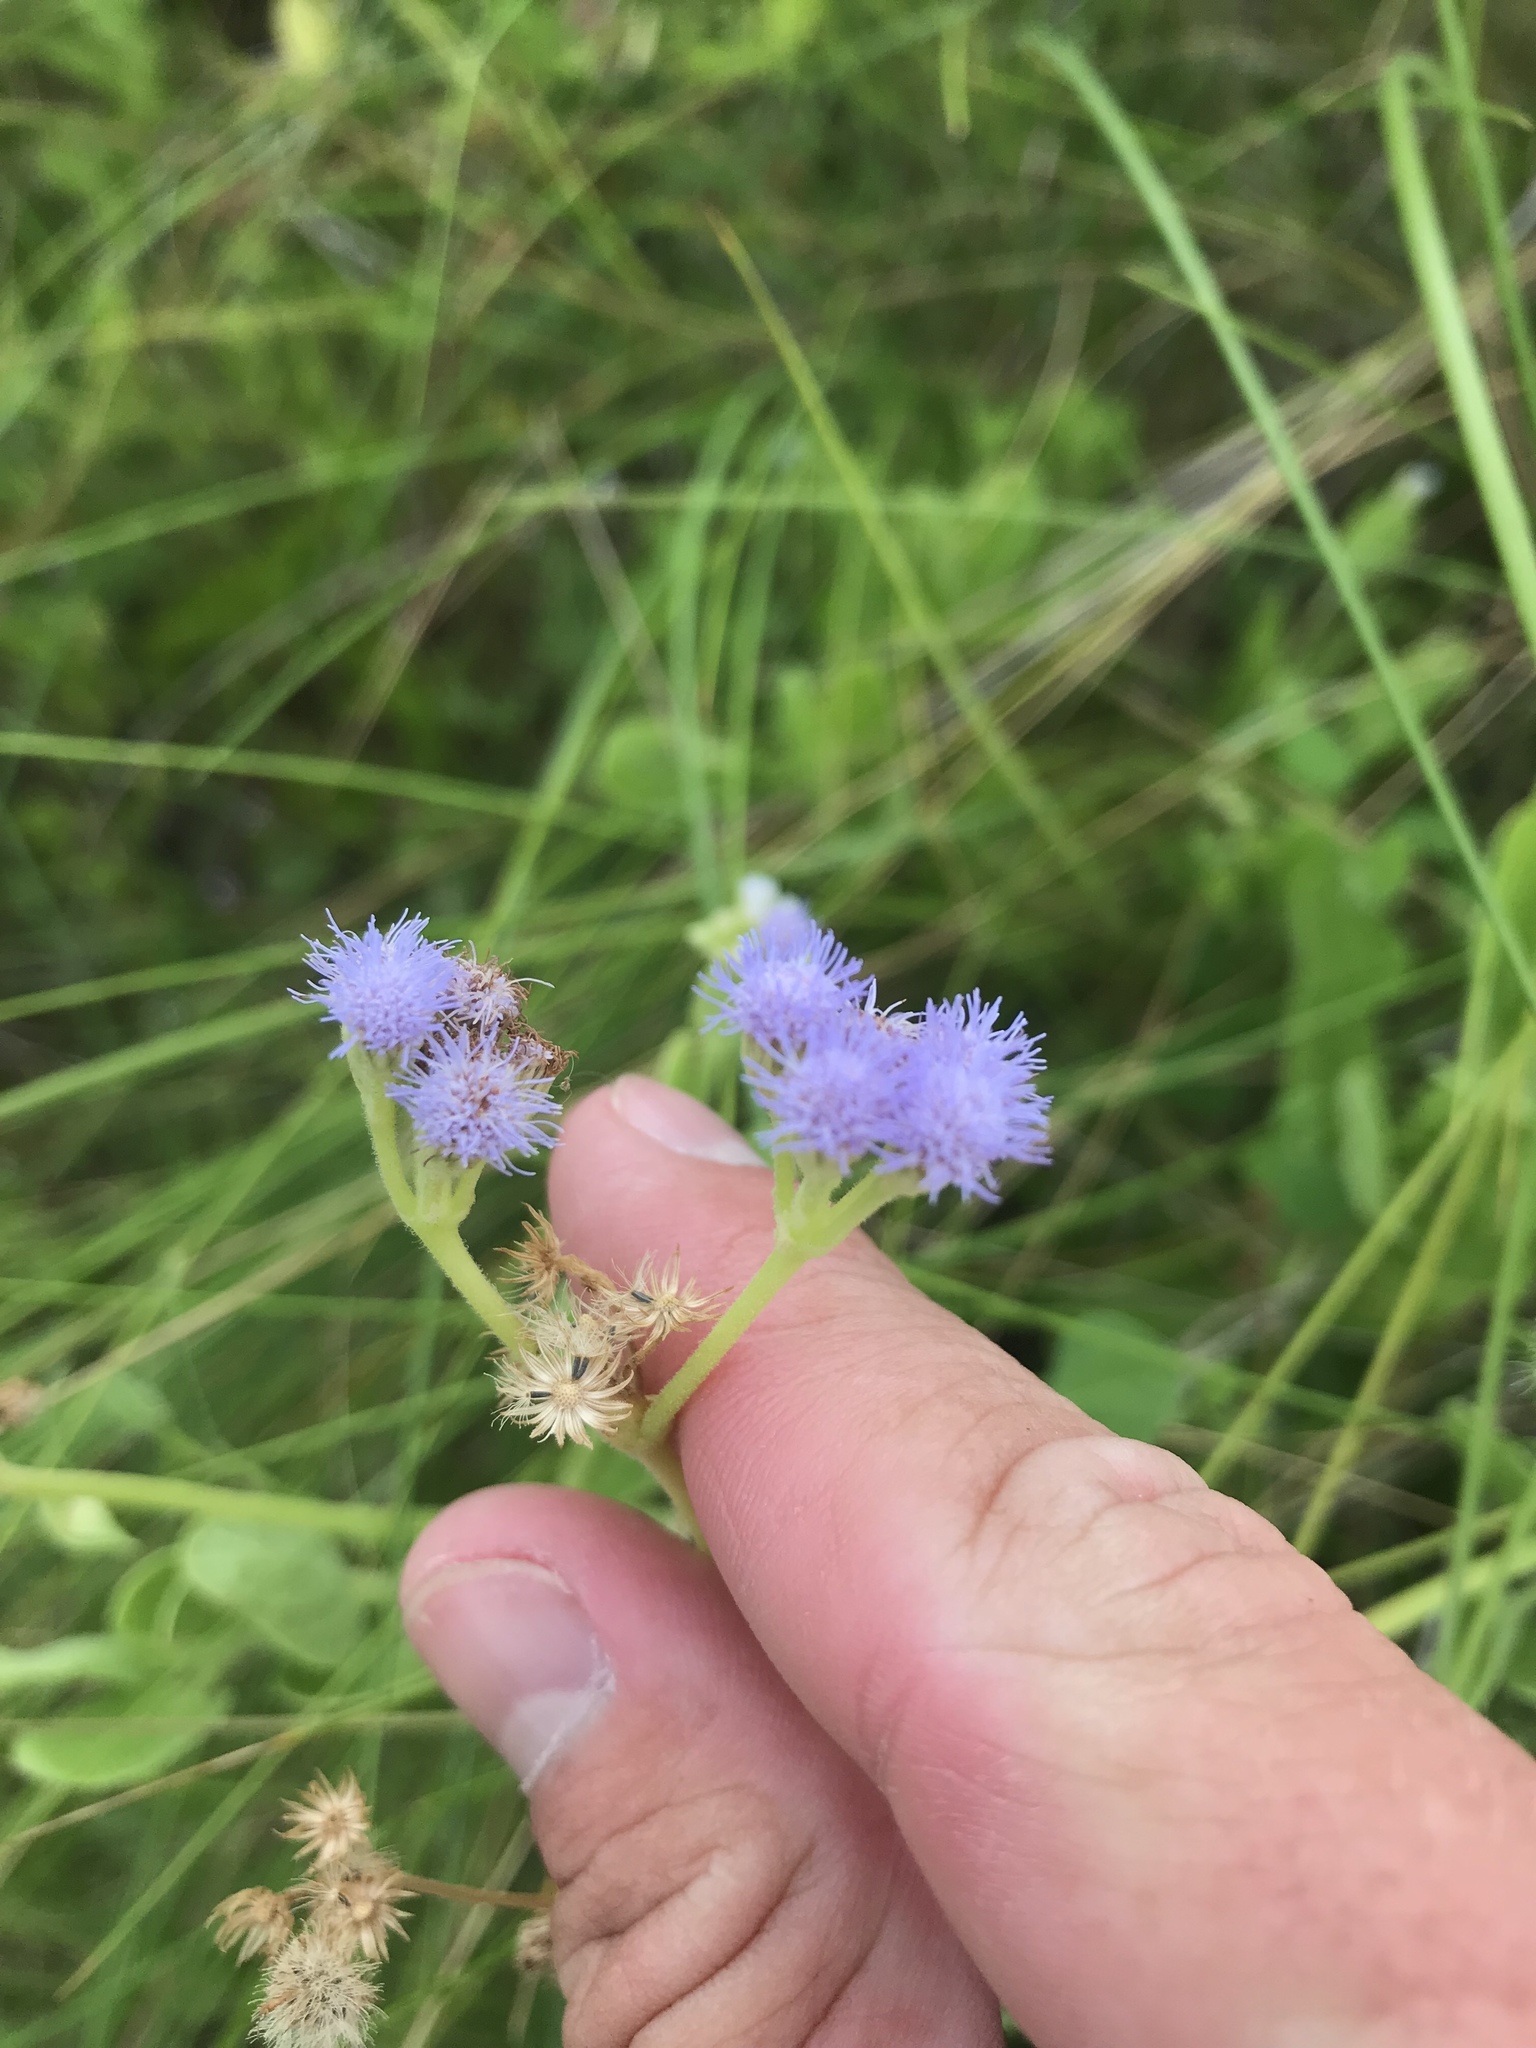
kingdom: Plantae
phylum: Tracheophyta
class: Magnoliopsida
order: Asterales
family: Asteraceae
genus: Conoclinium
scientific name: Conoclinium betonicifolium
